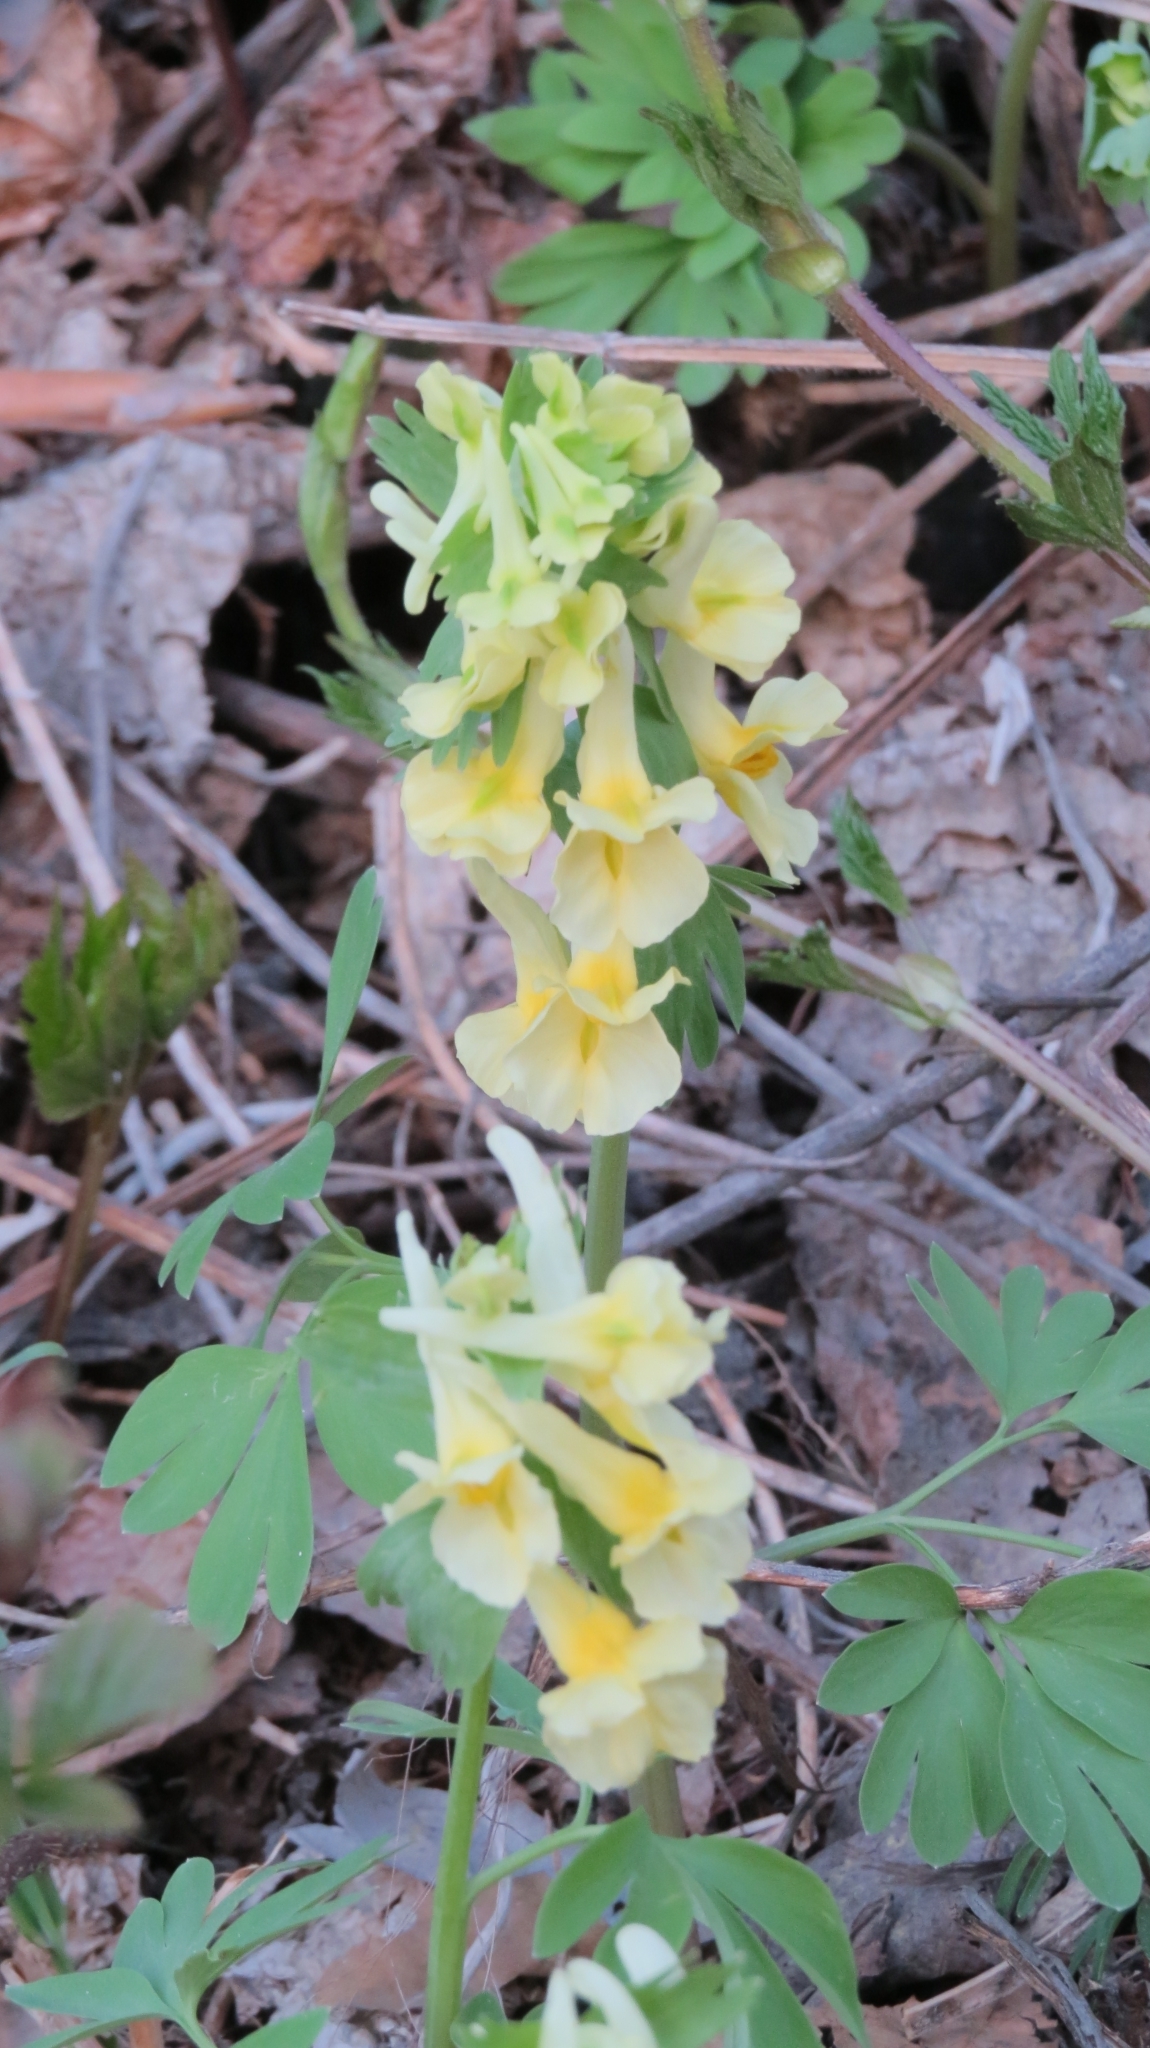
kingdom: Plantae
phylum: Tracheophyta
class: Magnoliopsida
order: Ranunculales
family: Papaveraceae
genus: Corydalis
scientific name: Corydalis bracteata
